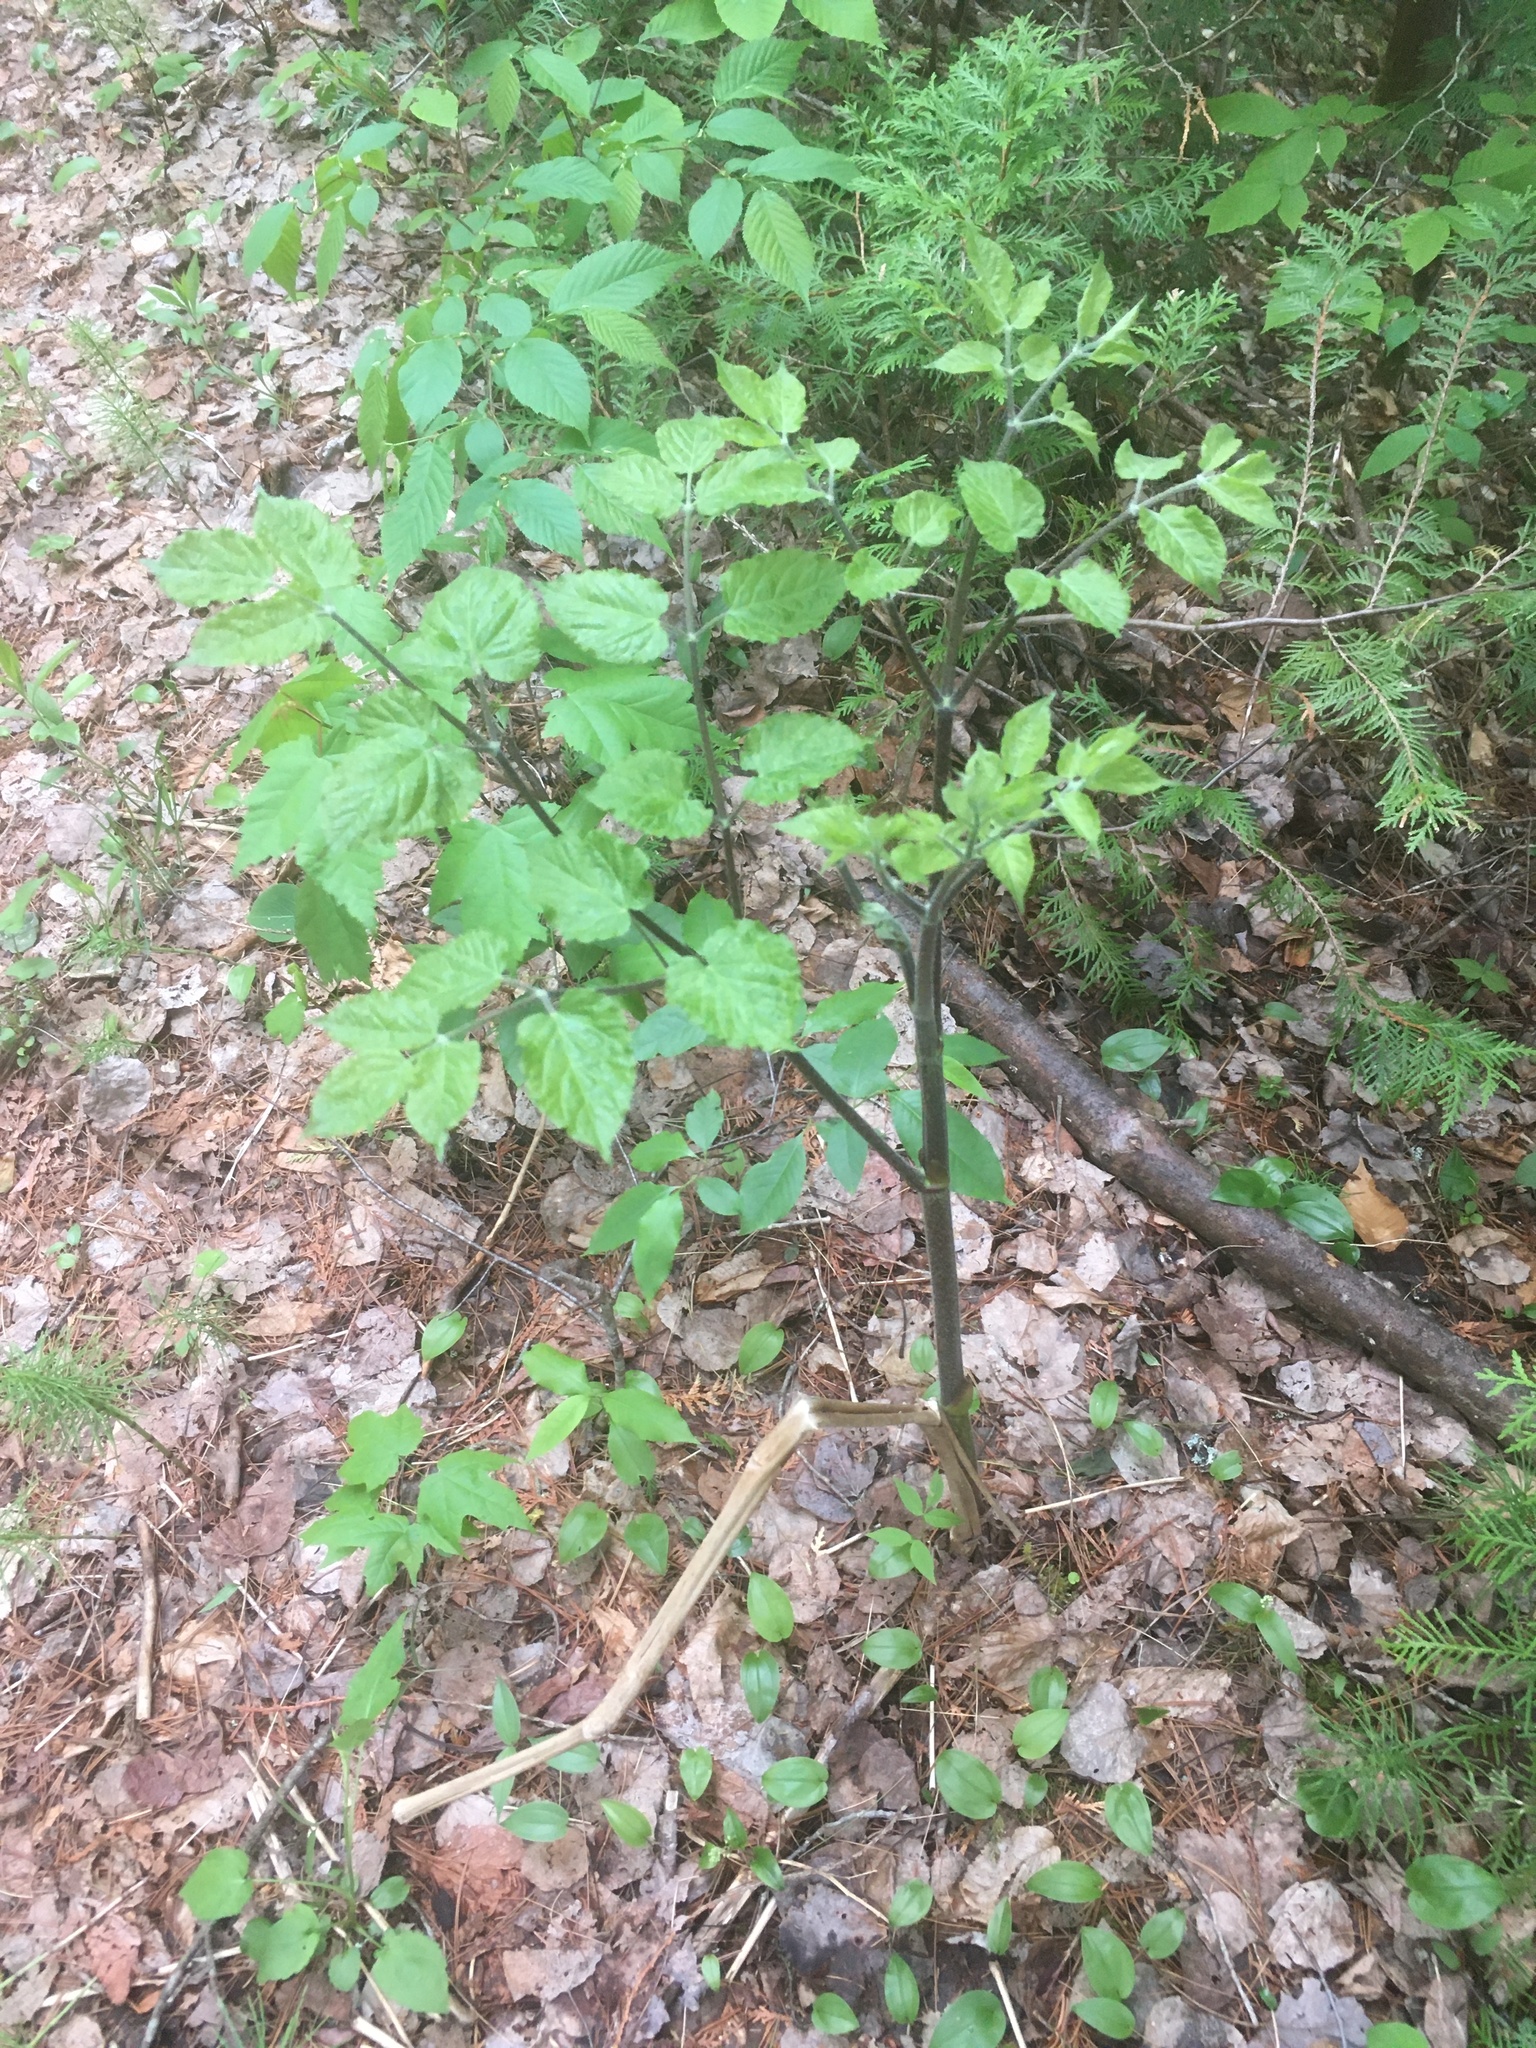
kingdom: Plantae
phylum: Tracheophyta
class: Magnoliopsida
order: Apiales
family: Araliaceae
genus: Aralia
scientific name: Aralia racemosa
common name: American-spikenard
